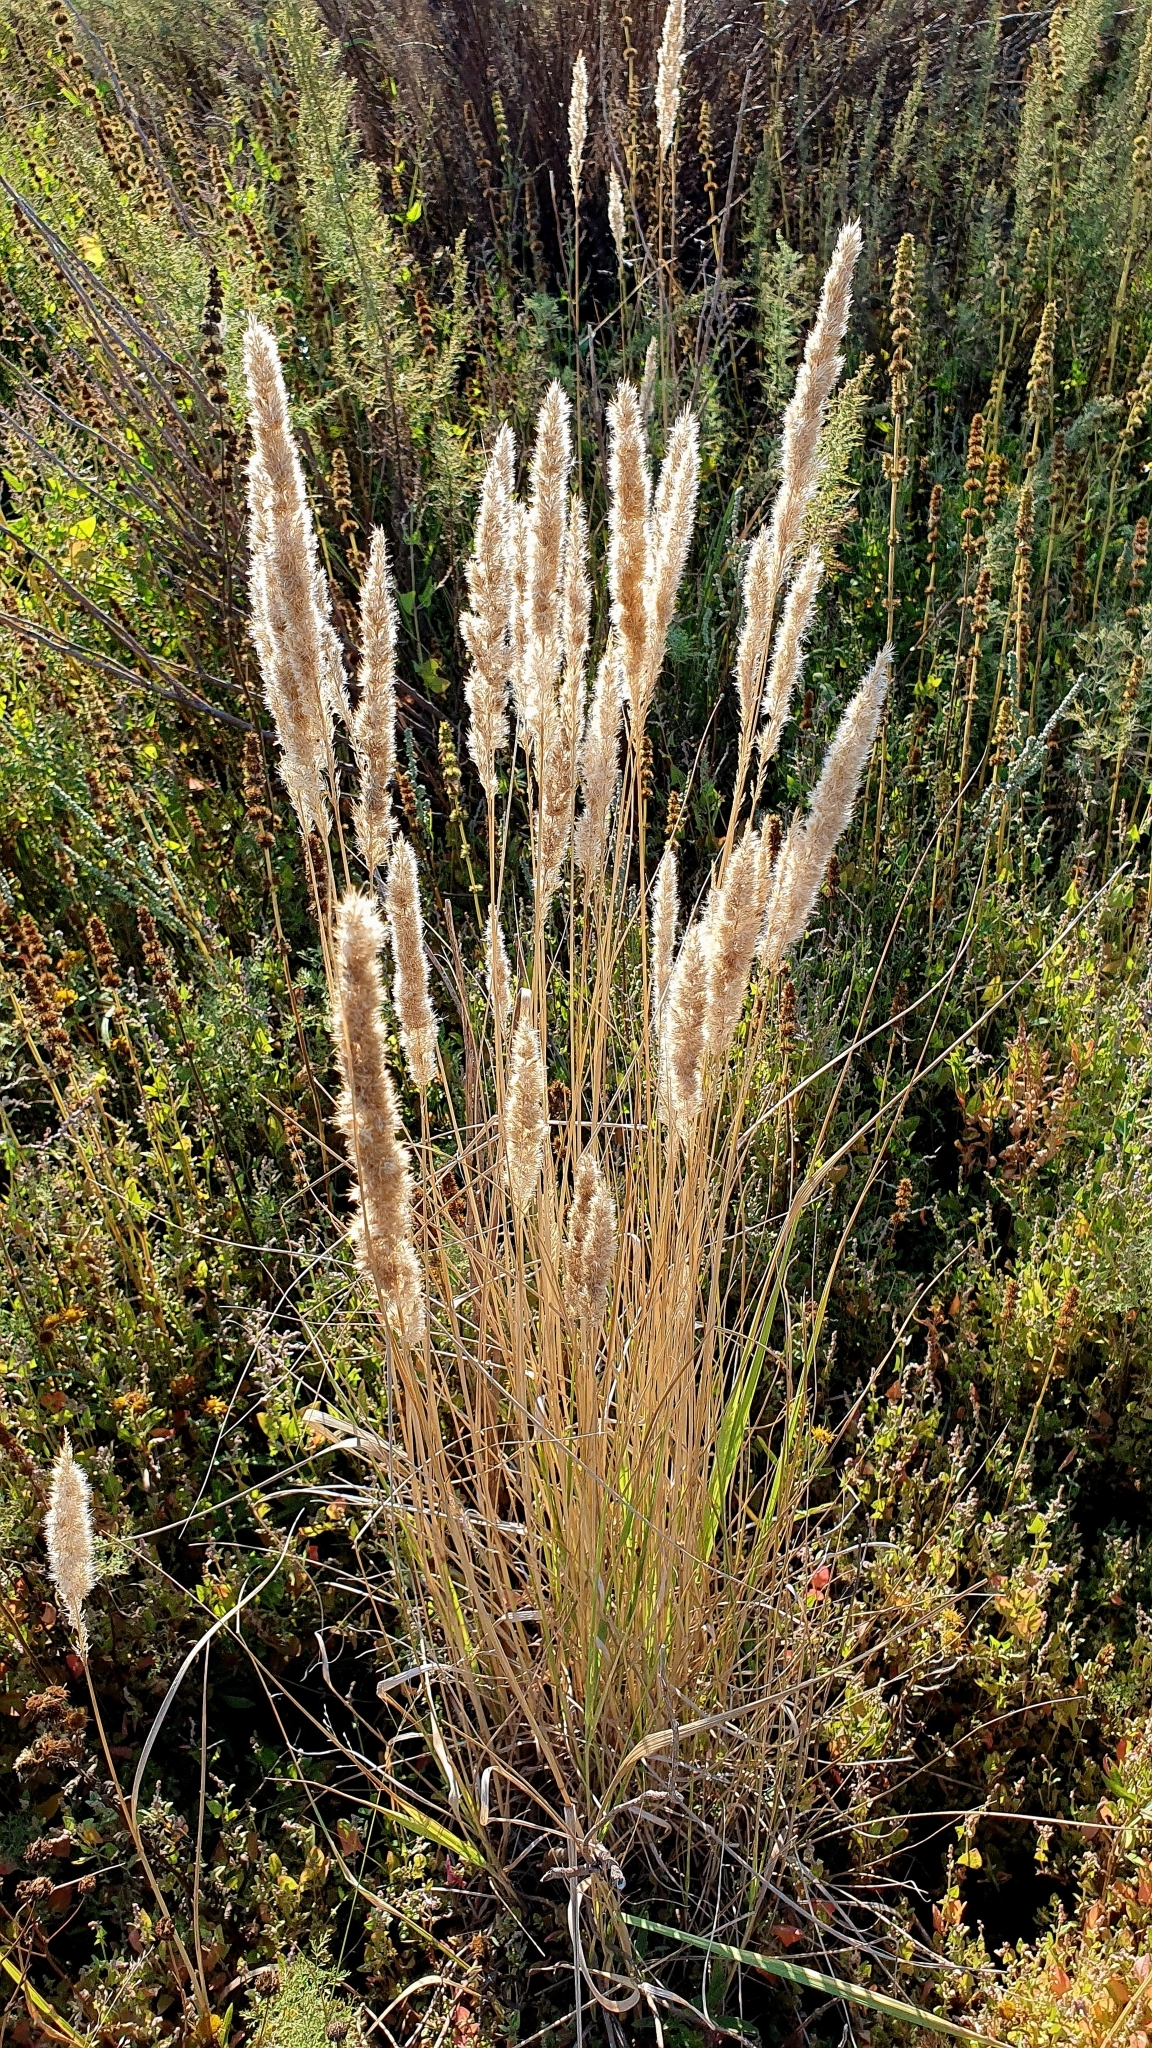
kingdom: Plantae
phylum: Tracheophyta
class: Liliopsida
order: Poales
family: Poaceae
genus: Calamagrostis
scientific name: Calamagrostis epigejos
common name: Wood small-reed
